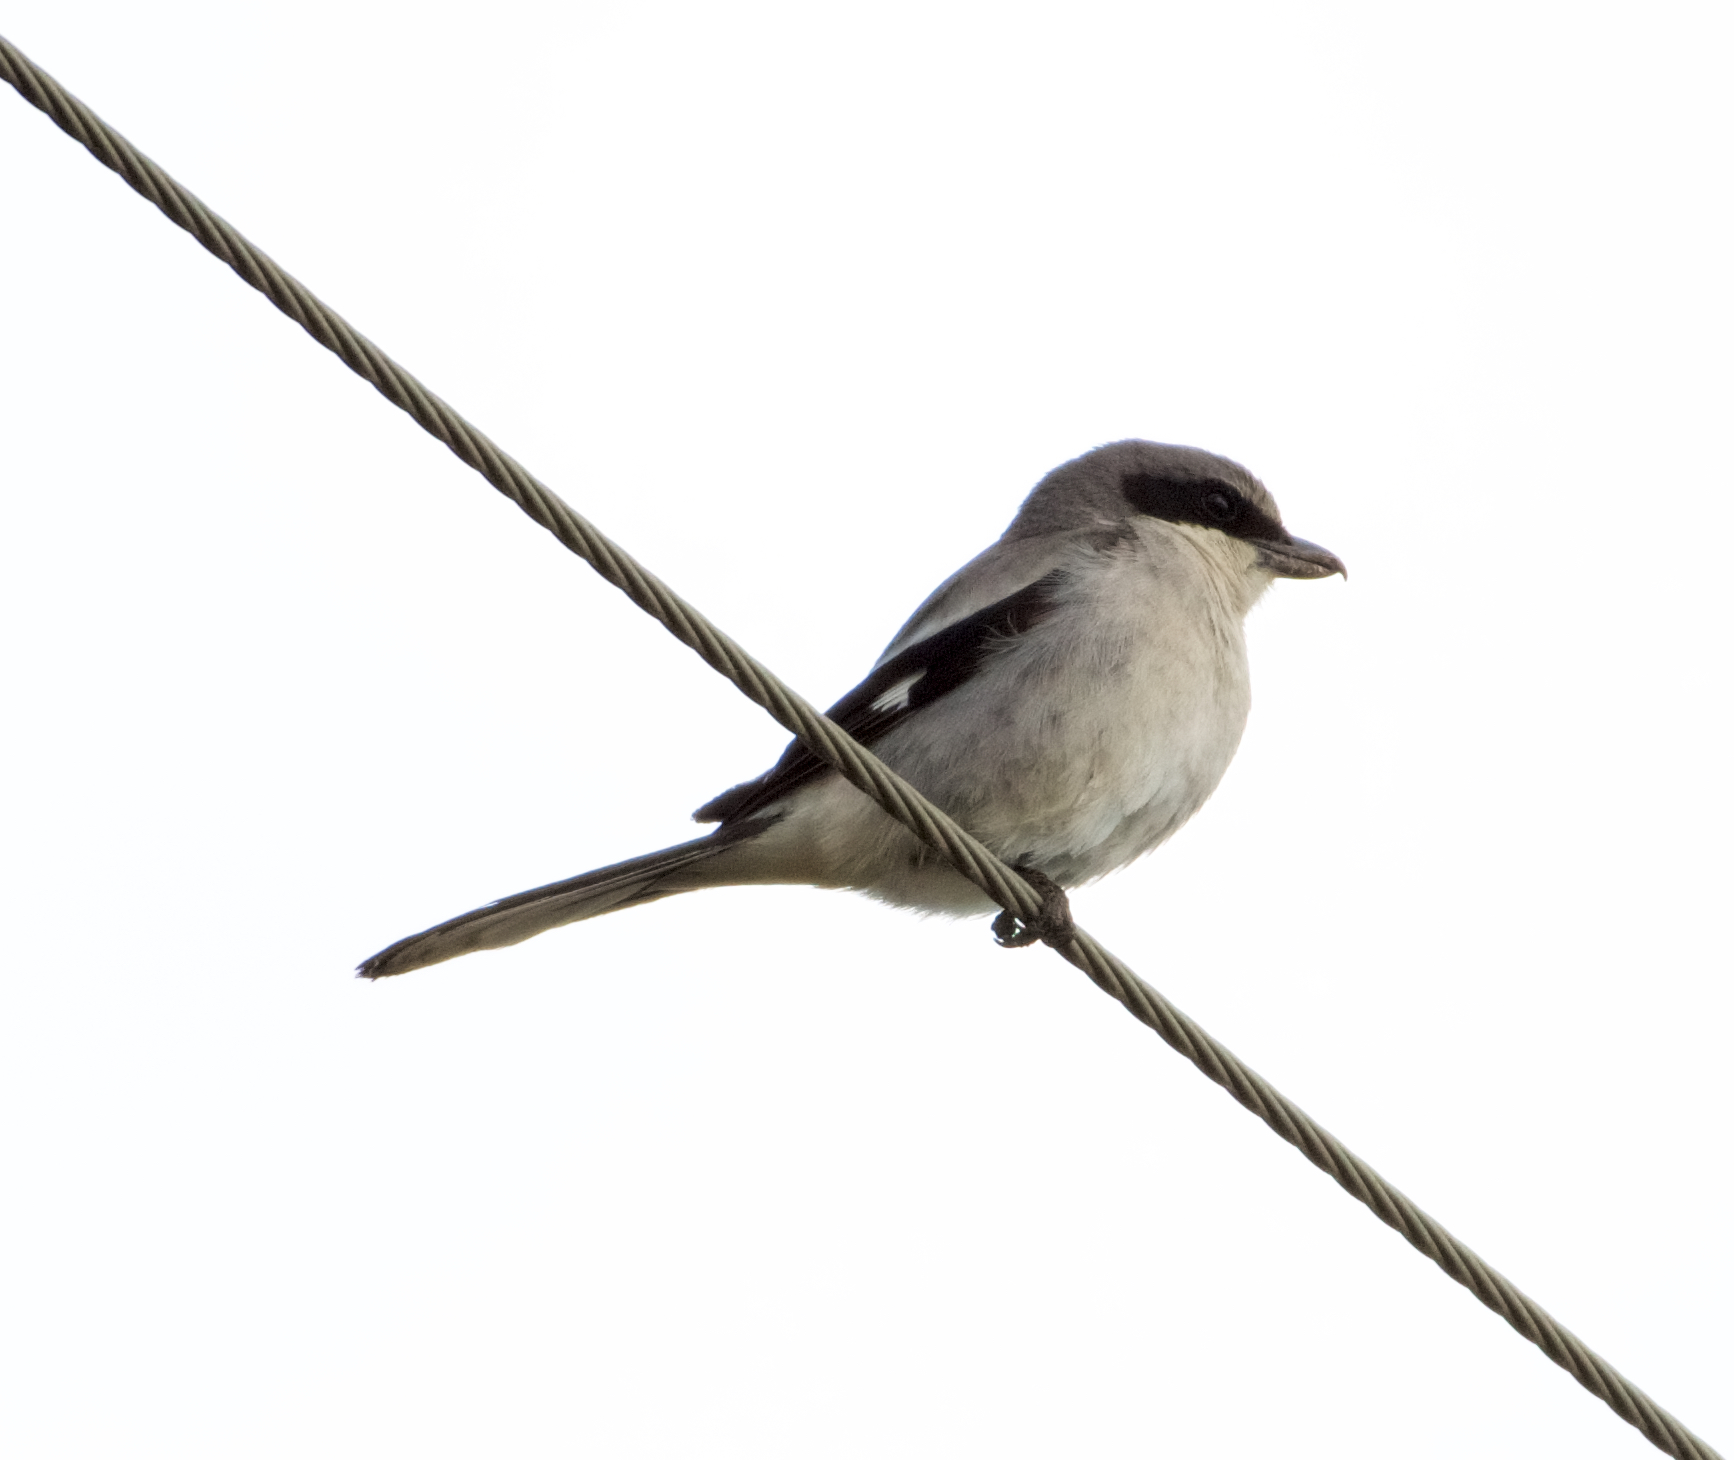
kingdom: Animalia
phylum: Chordata
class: Aves
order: Passeriformes
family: Laniidae
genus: Lanius
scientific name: Lanius ludovicianus
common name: Loggerhead shrike
